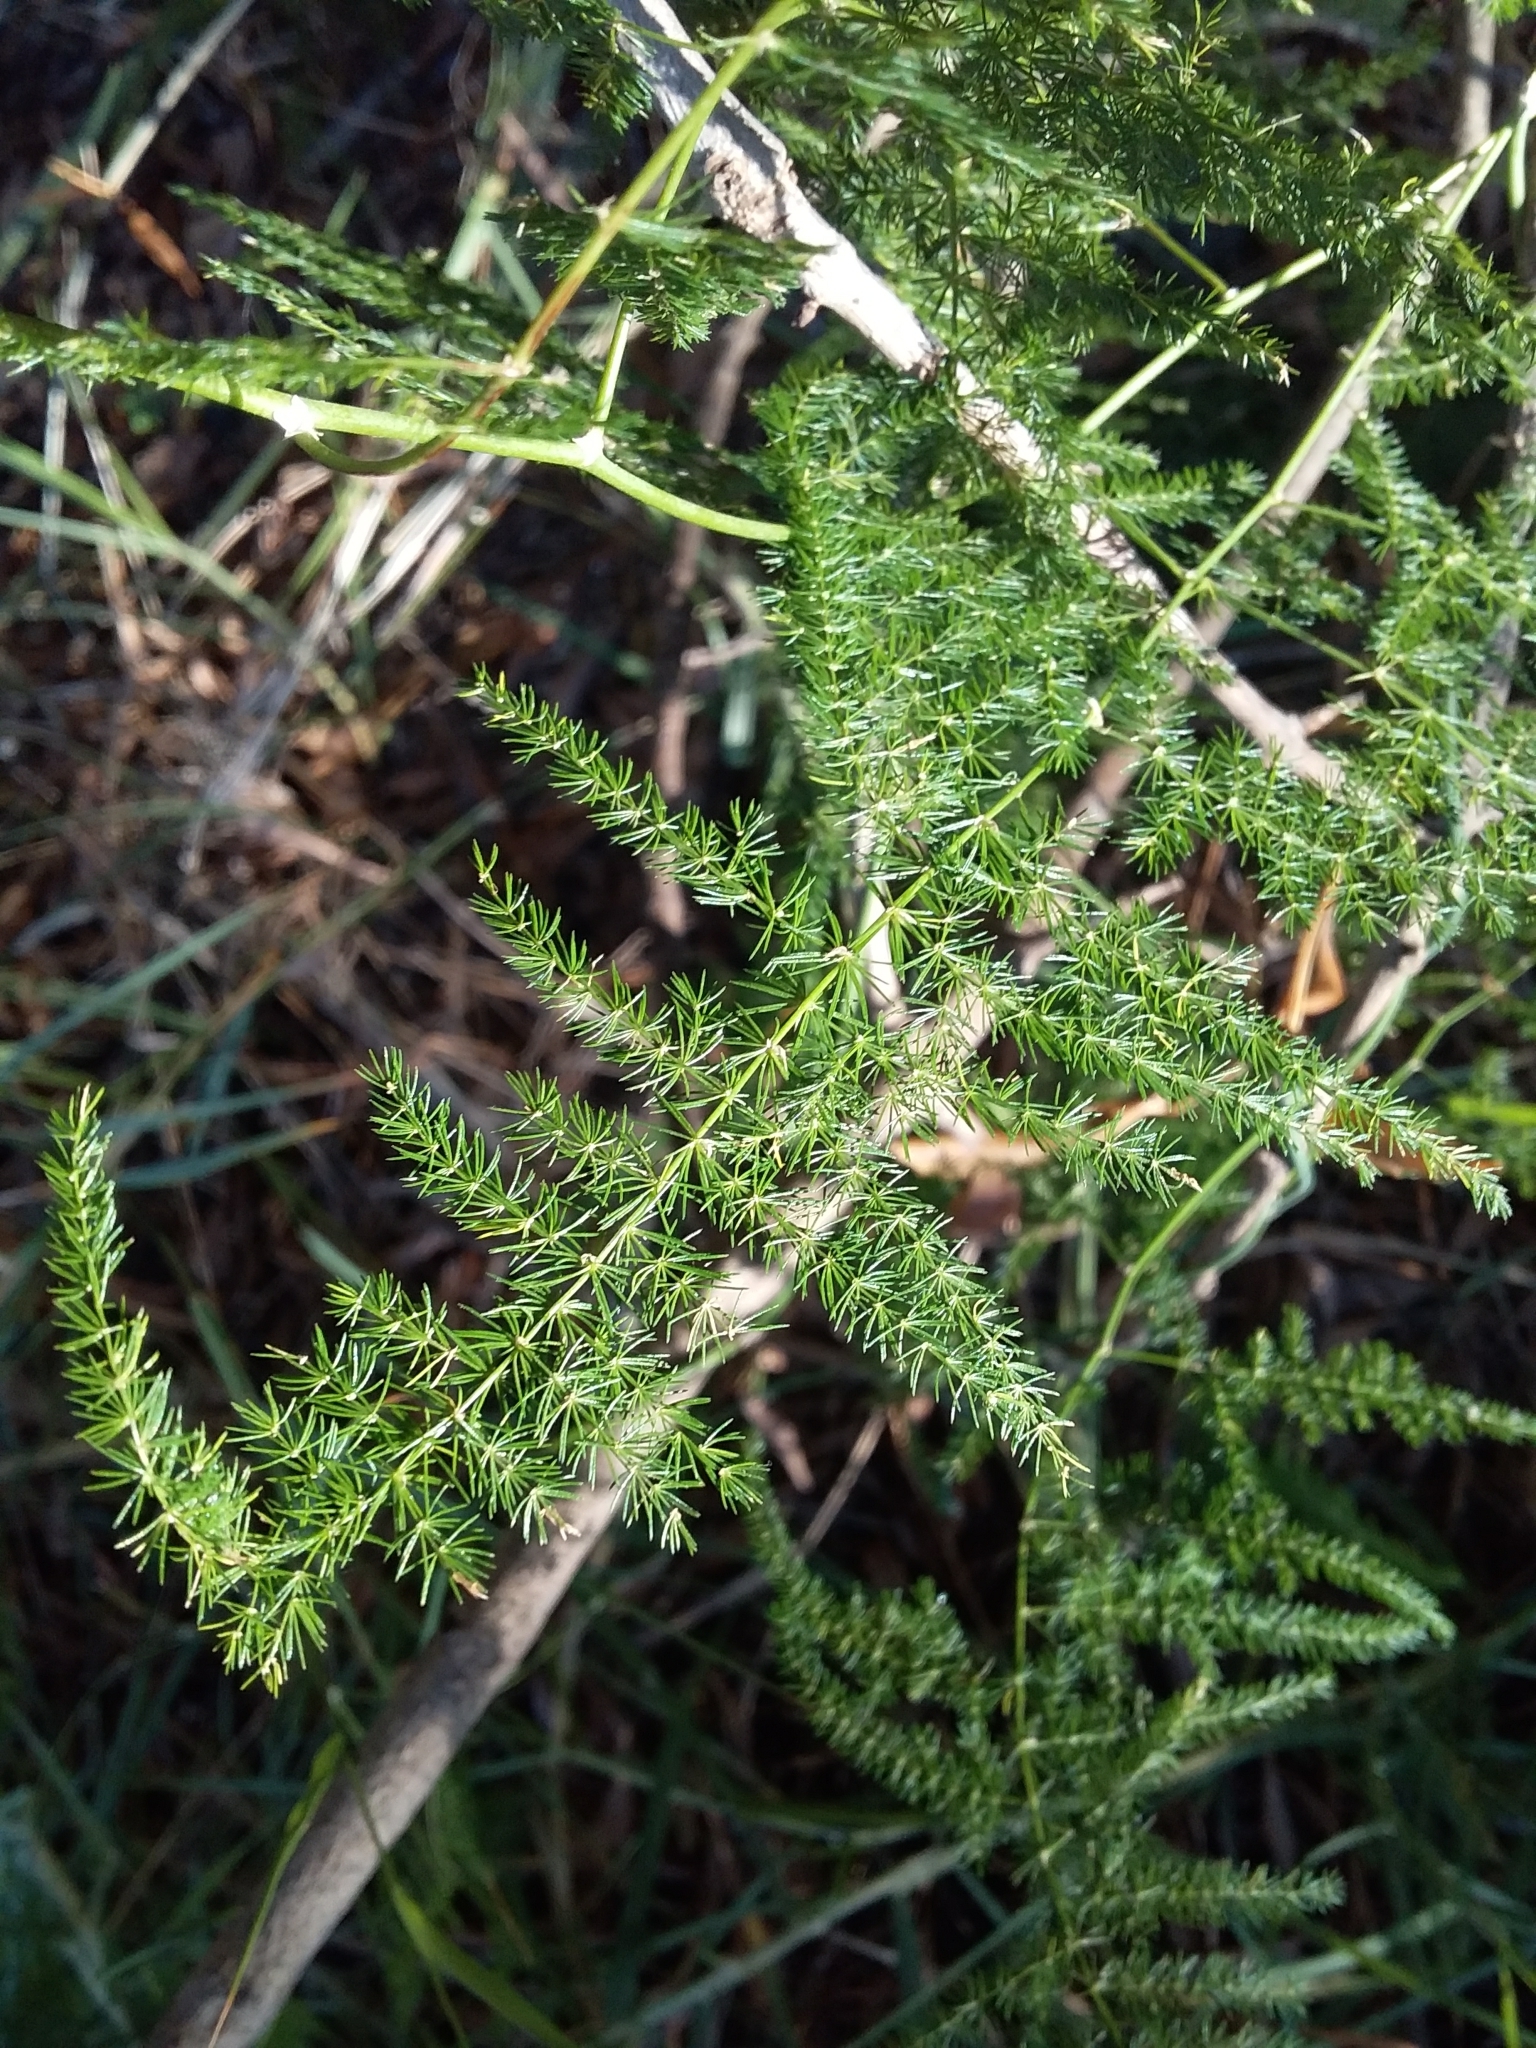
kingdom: Plantae
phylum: Tracheophyta
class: Liliopsida
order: Asparagales
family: Asparagaceae
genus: Asparagus
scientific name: Asparagus setaceus
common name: Common asparagus fern
